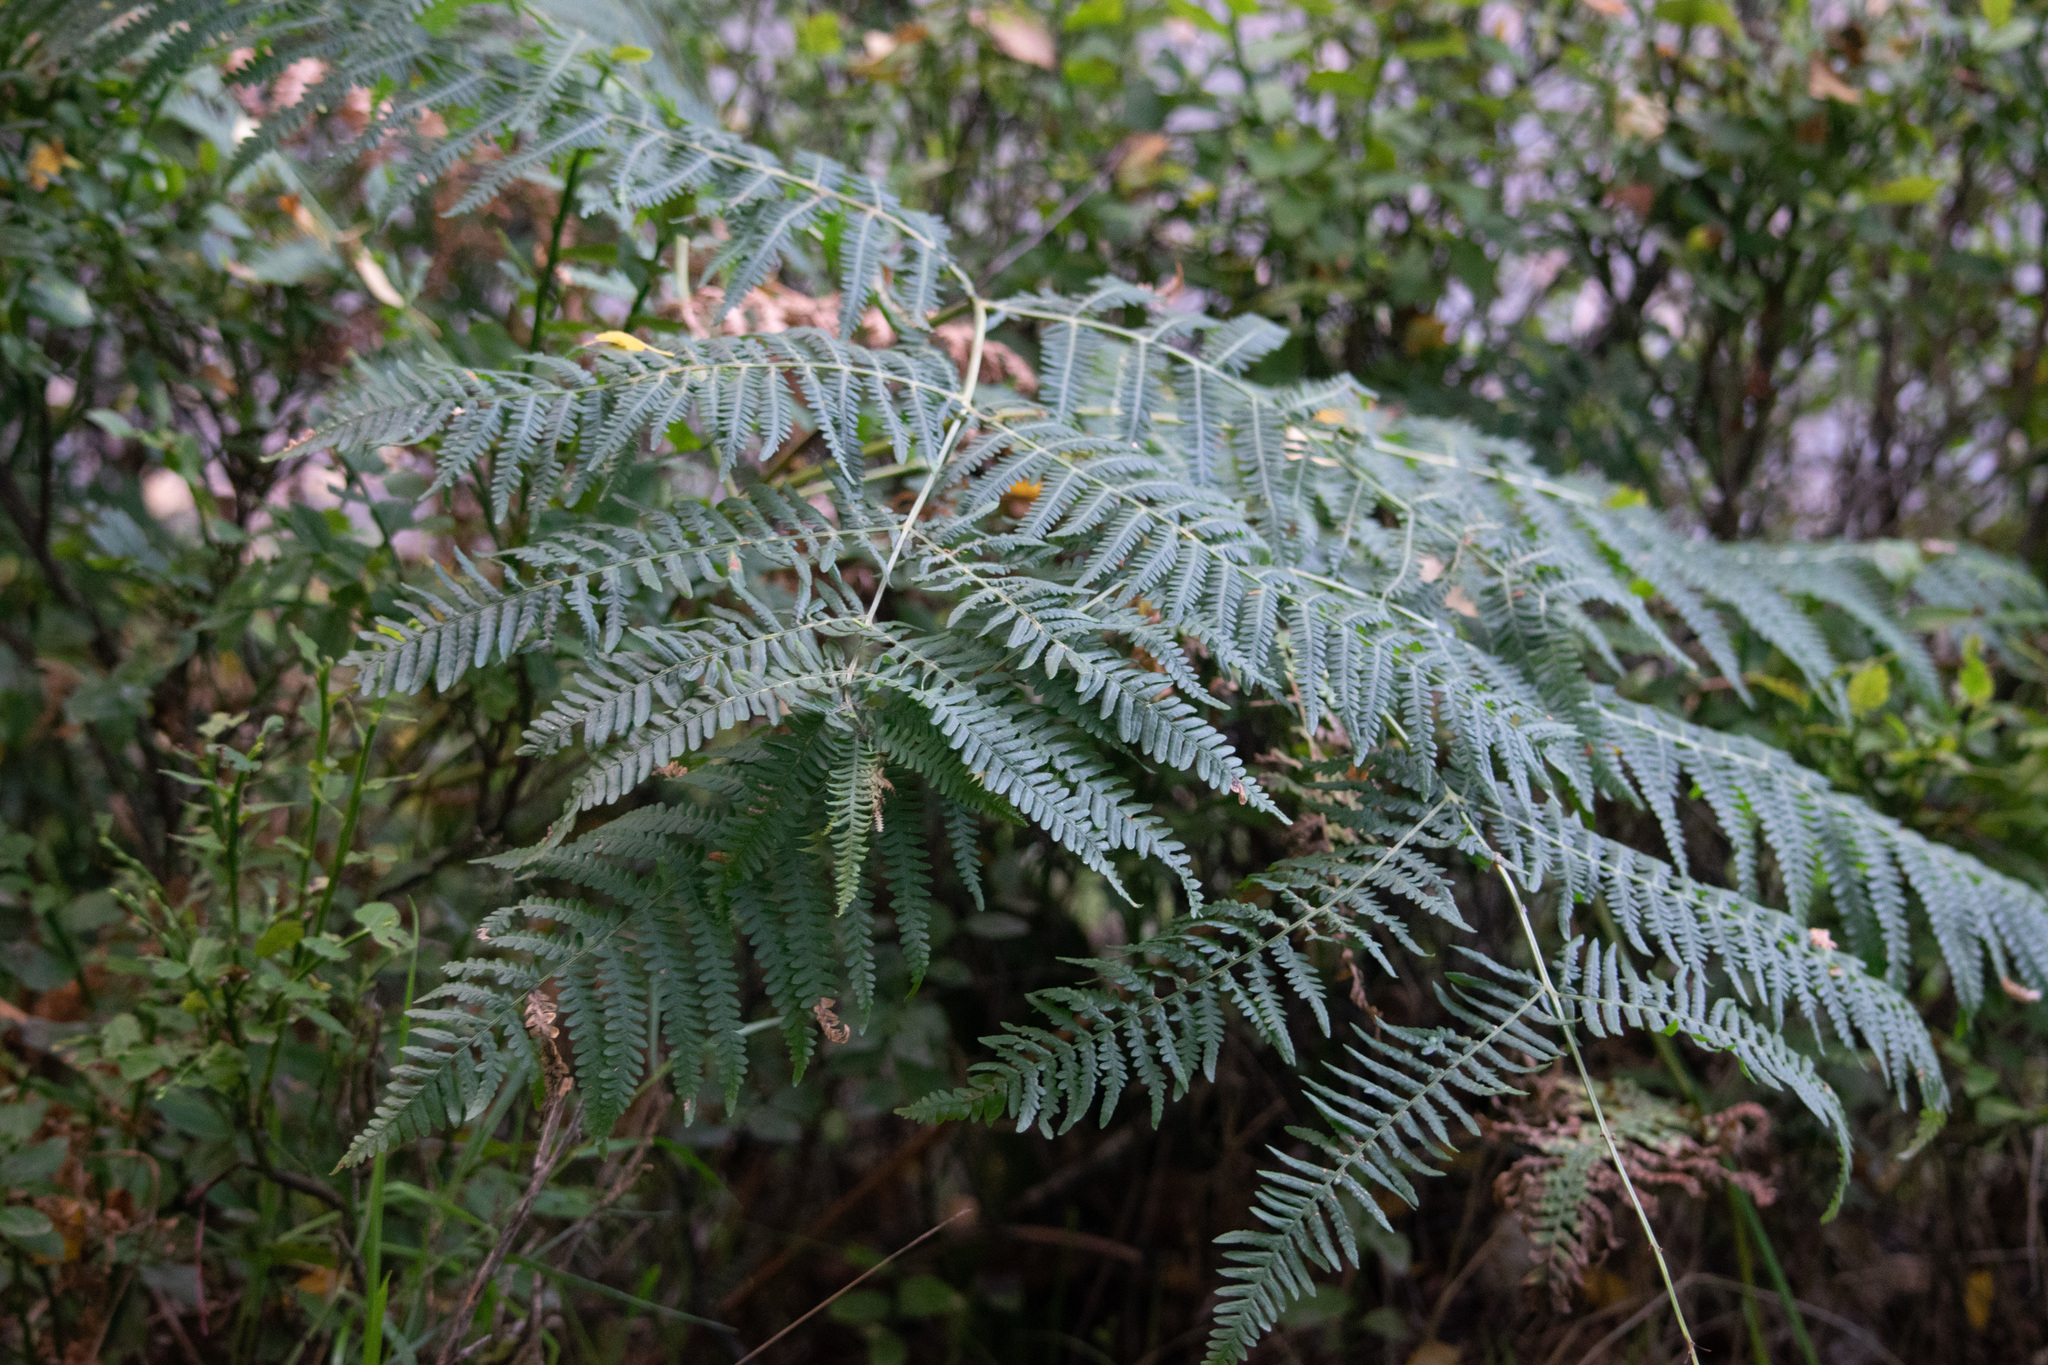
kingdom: Plantae
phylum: Tracheophyta
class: Polypodiopsida
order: Polypodiales
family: Dennstaedtiaceae
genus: Pteridium
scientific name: Pteridium aquilinum
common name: Bracken
